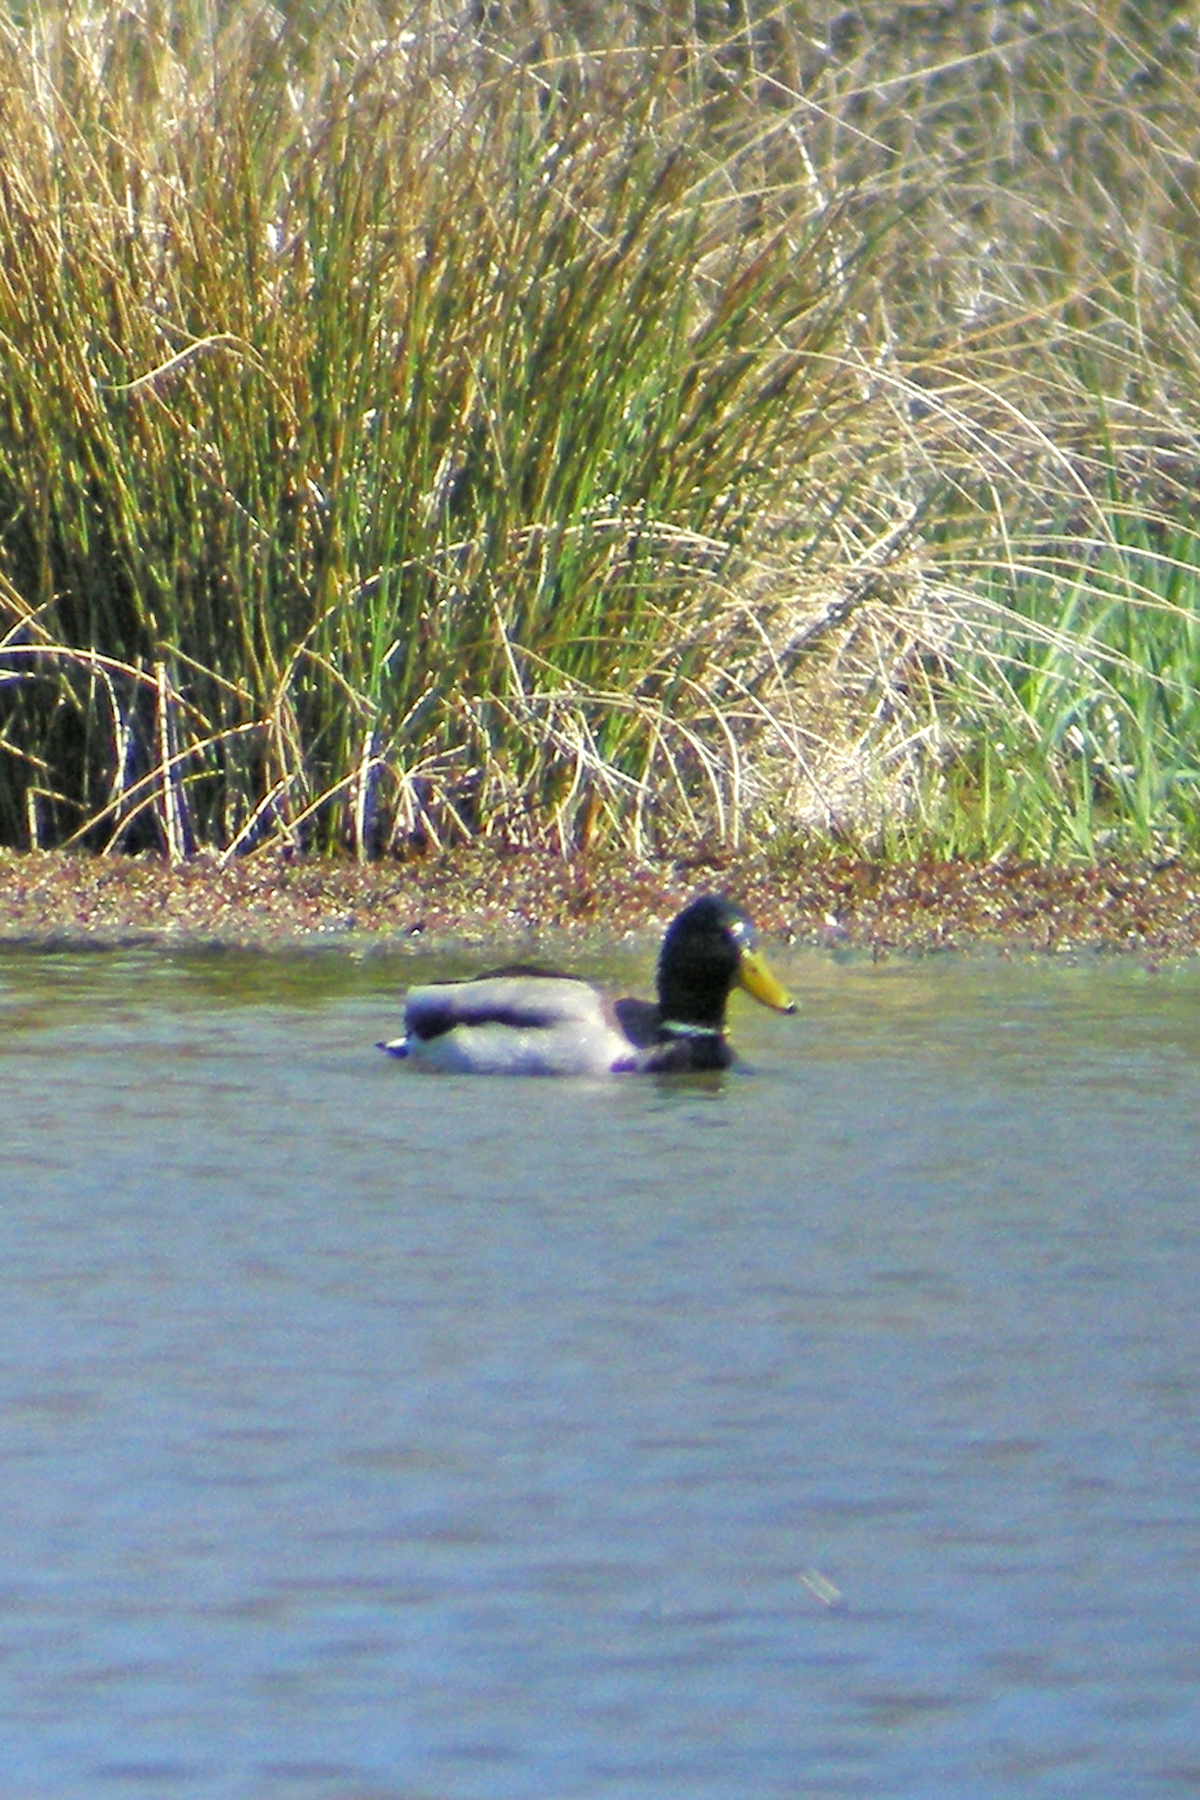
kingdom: Animalia
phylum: Chordata
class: Aves
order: Anseriformes
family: Anatidae
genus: Anas
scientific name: Anas platyrhynchos
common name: Mallard
